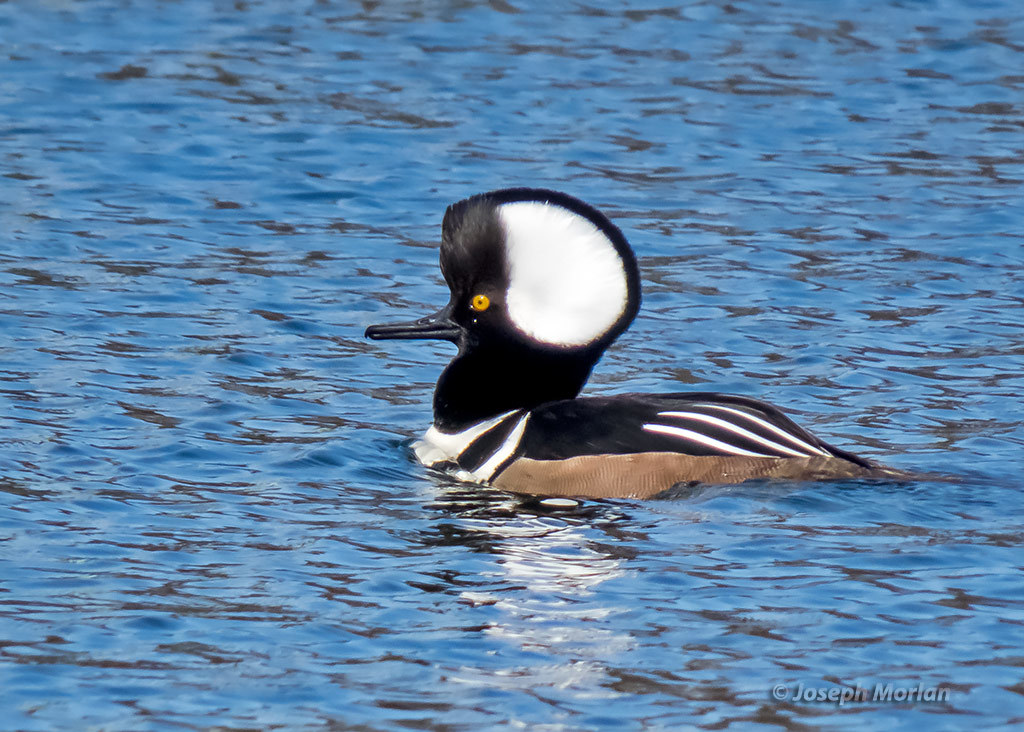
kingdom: Animalia
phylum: Chordata
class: Aves
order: Anseriformes
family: Anatidae
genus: Lophodytes
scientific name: Lophodytes cucullatus
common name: Hooded merganser
